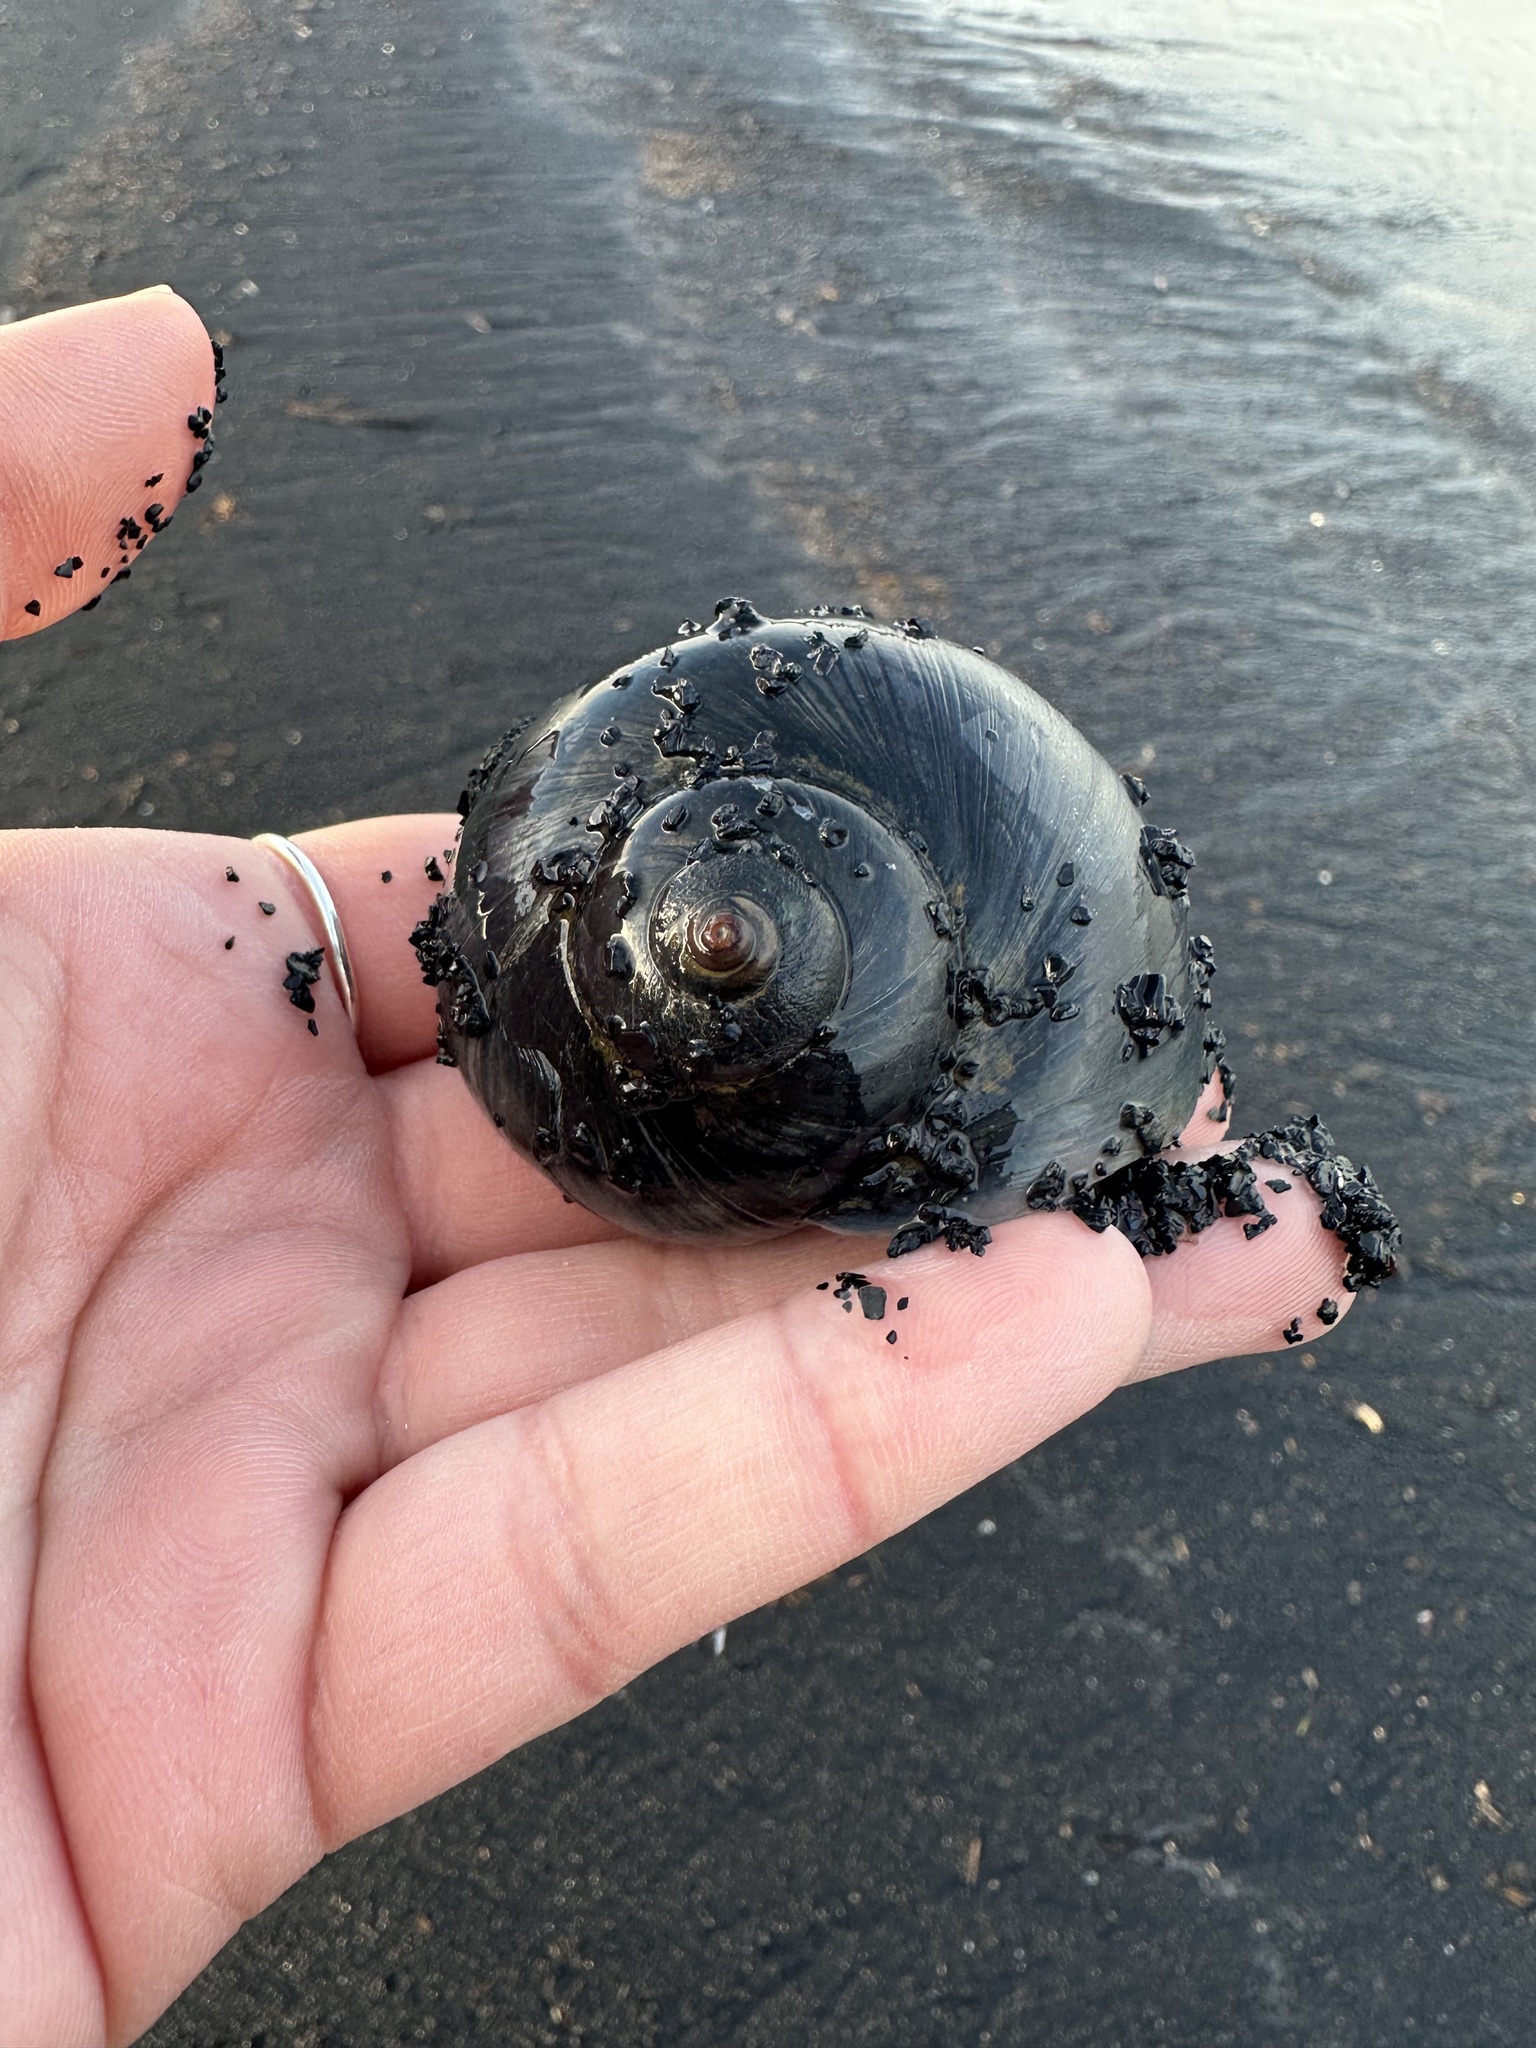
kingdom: Animalia
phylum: Mollusca
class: Gastropoda
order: Littorinimorpha
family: Naticidae
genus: Euspira
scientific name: Euspira heros
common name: Common northern moonsnail
